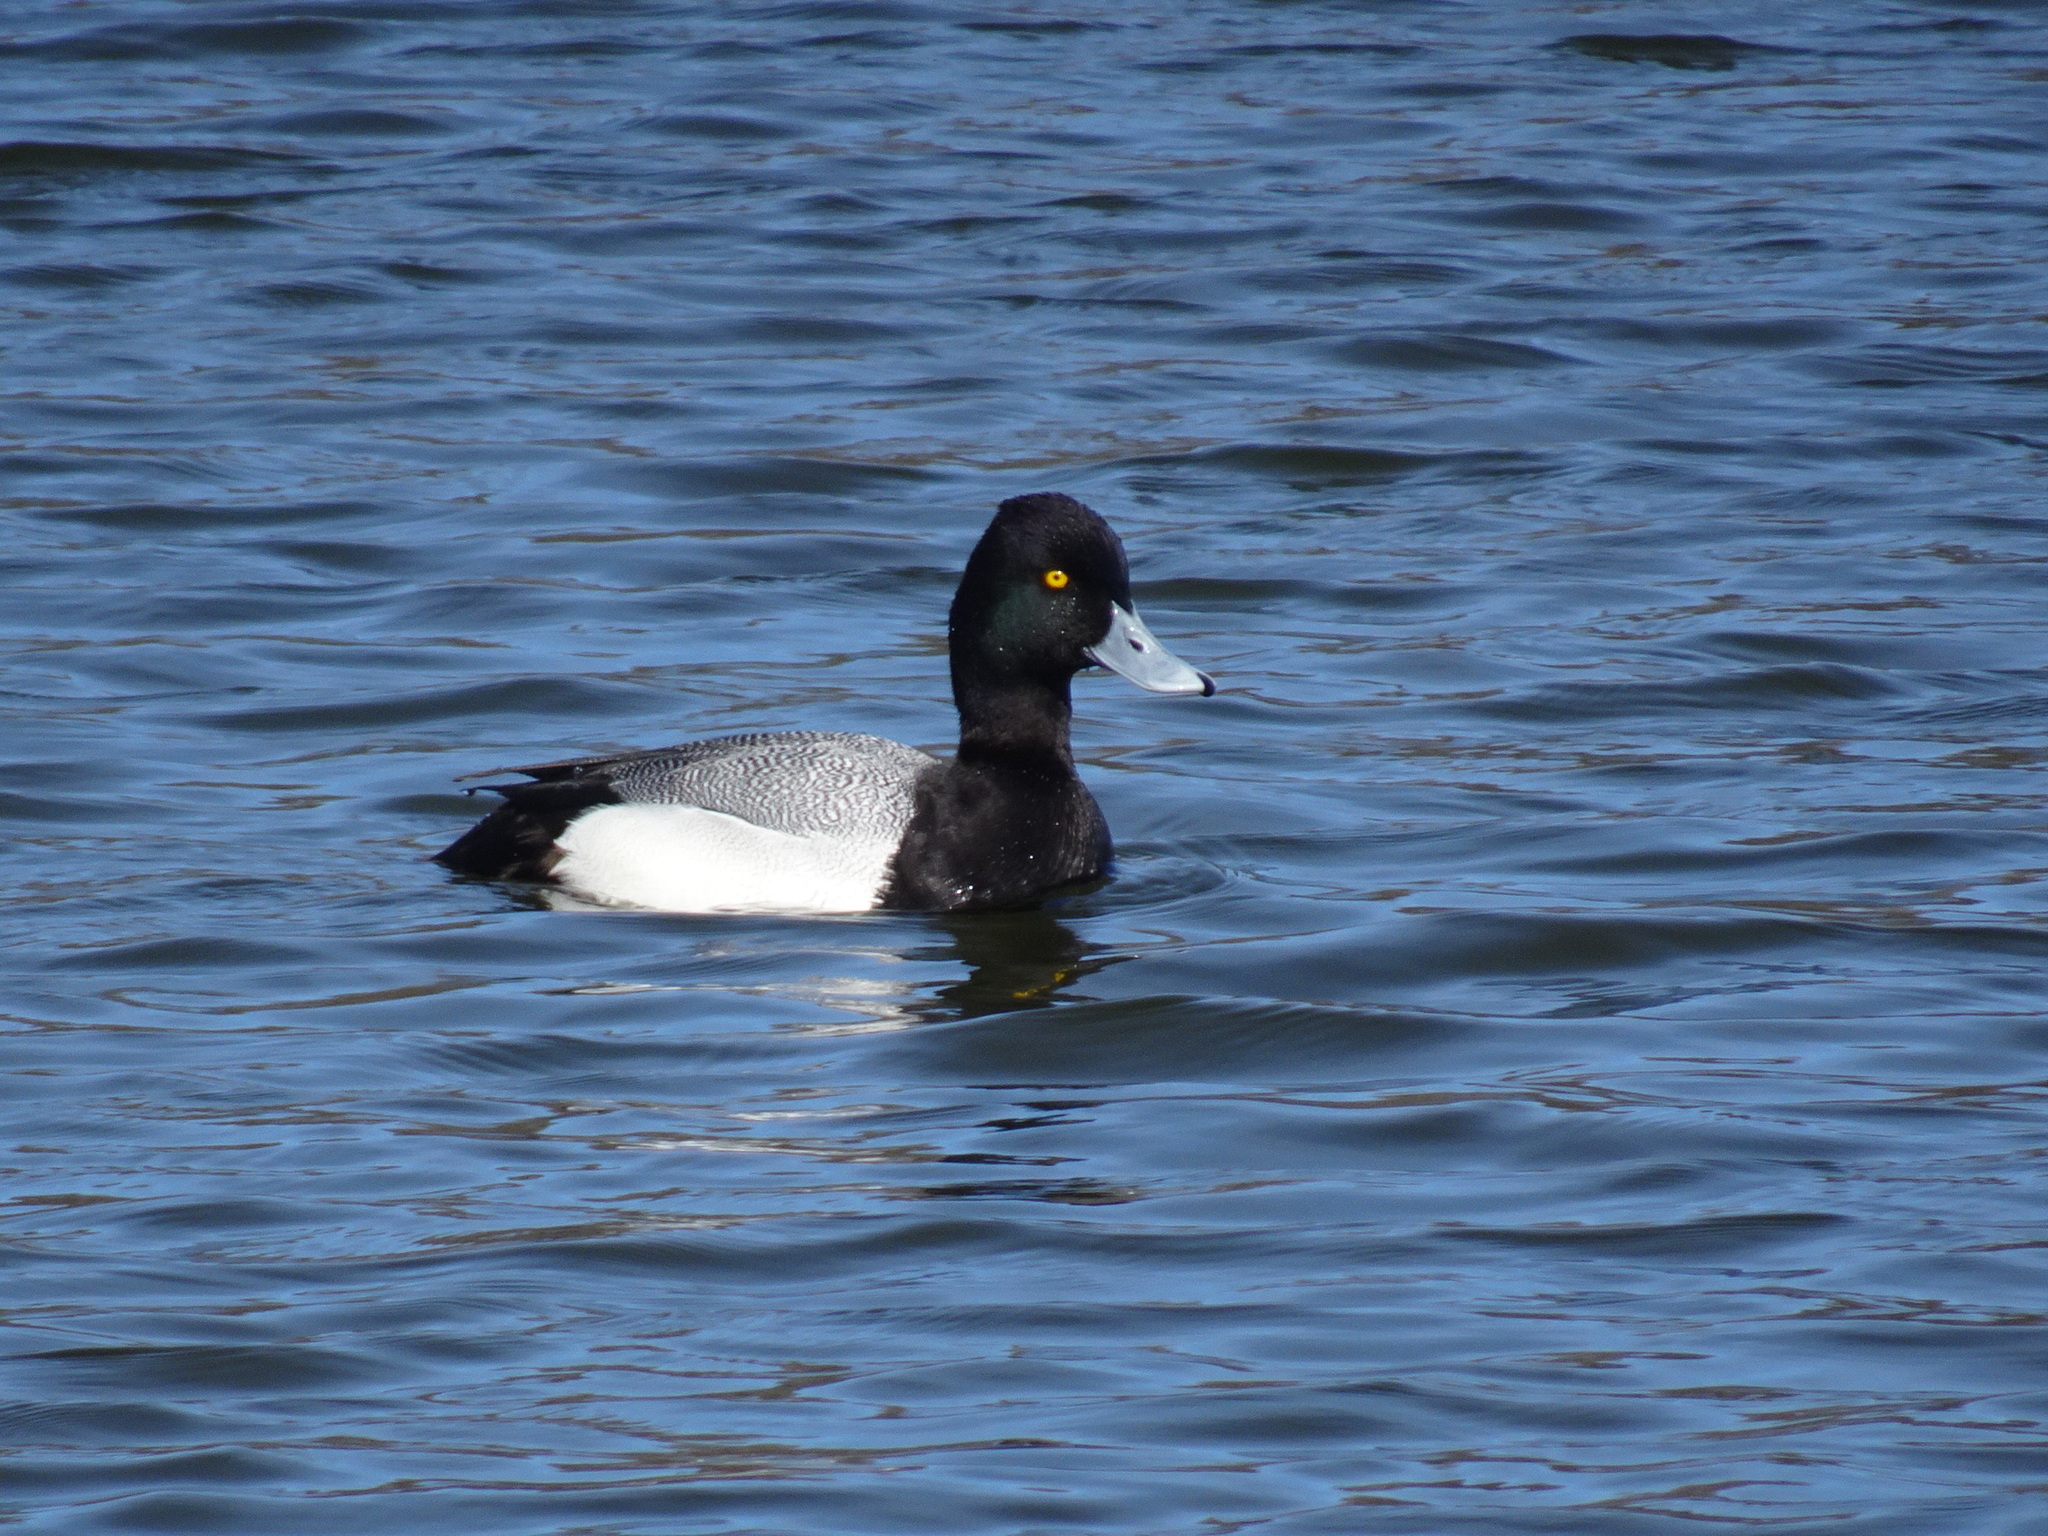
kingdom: Animalia
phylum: Chordata
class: Aves
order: Anseriformes
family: Anatidae
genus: Aythya
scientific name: Aythya affinis
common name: Lesser scaup
